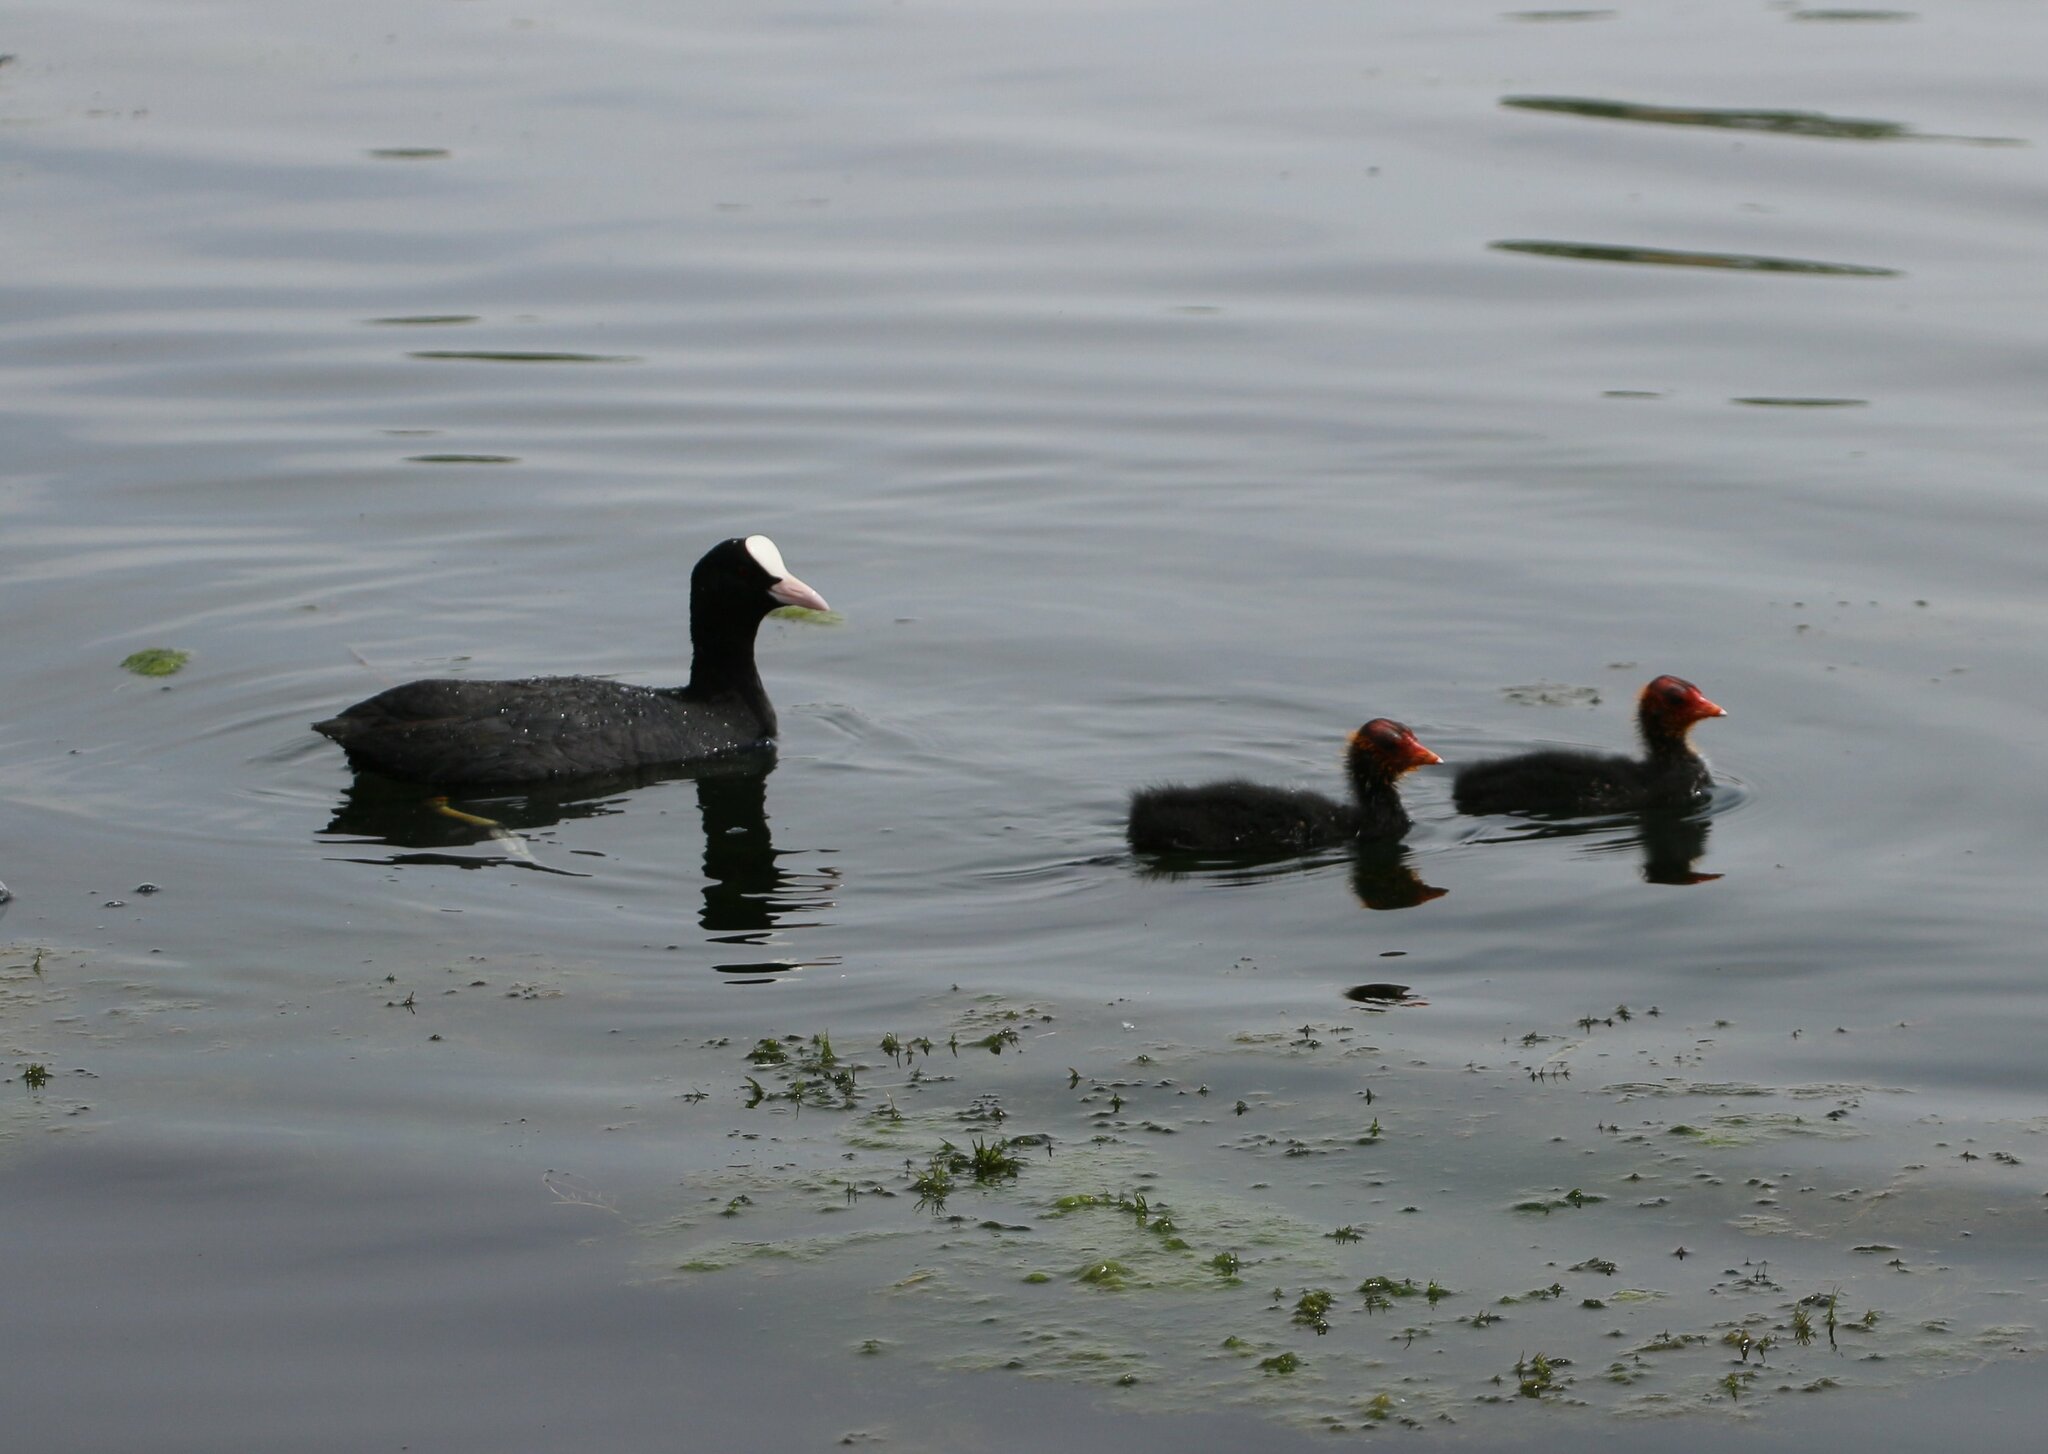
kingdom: Animalia
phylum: Chordata
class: Aves
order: Gruiformes
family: Rallidae
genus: Fulica
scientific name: Fulica atra
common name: Eurasian coot
